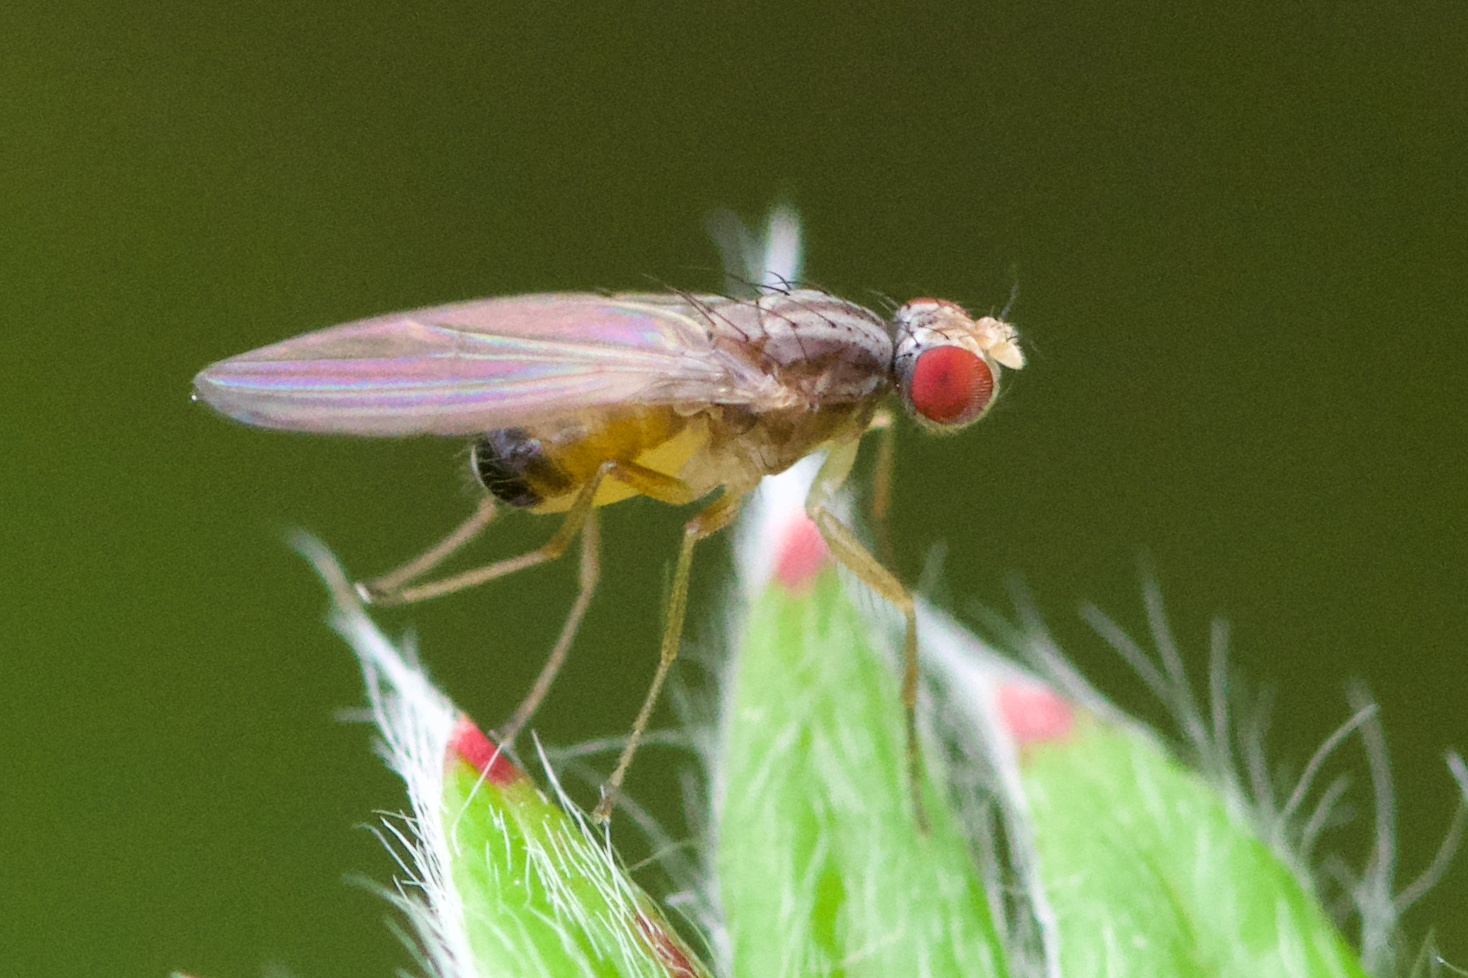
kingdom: Animalia
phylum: Arthropoda
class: Insecta
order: Diptera
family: Drosophilidae
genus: Scaptomyza
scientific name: Scaptomyza pallida
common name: Pomace fly
